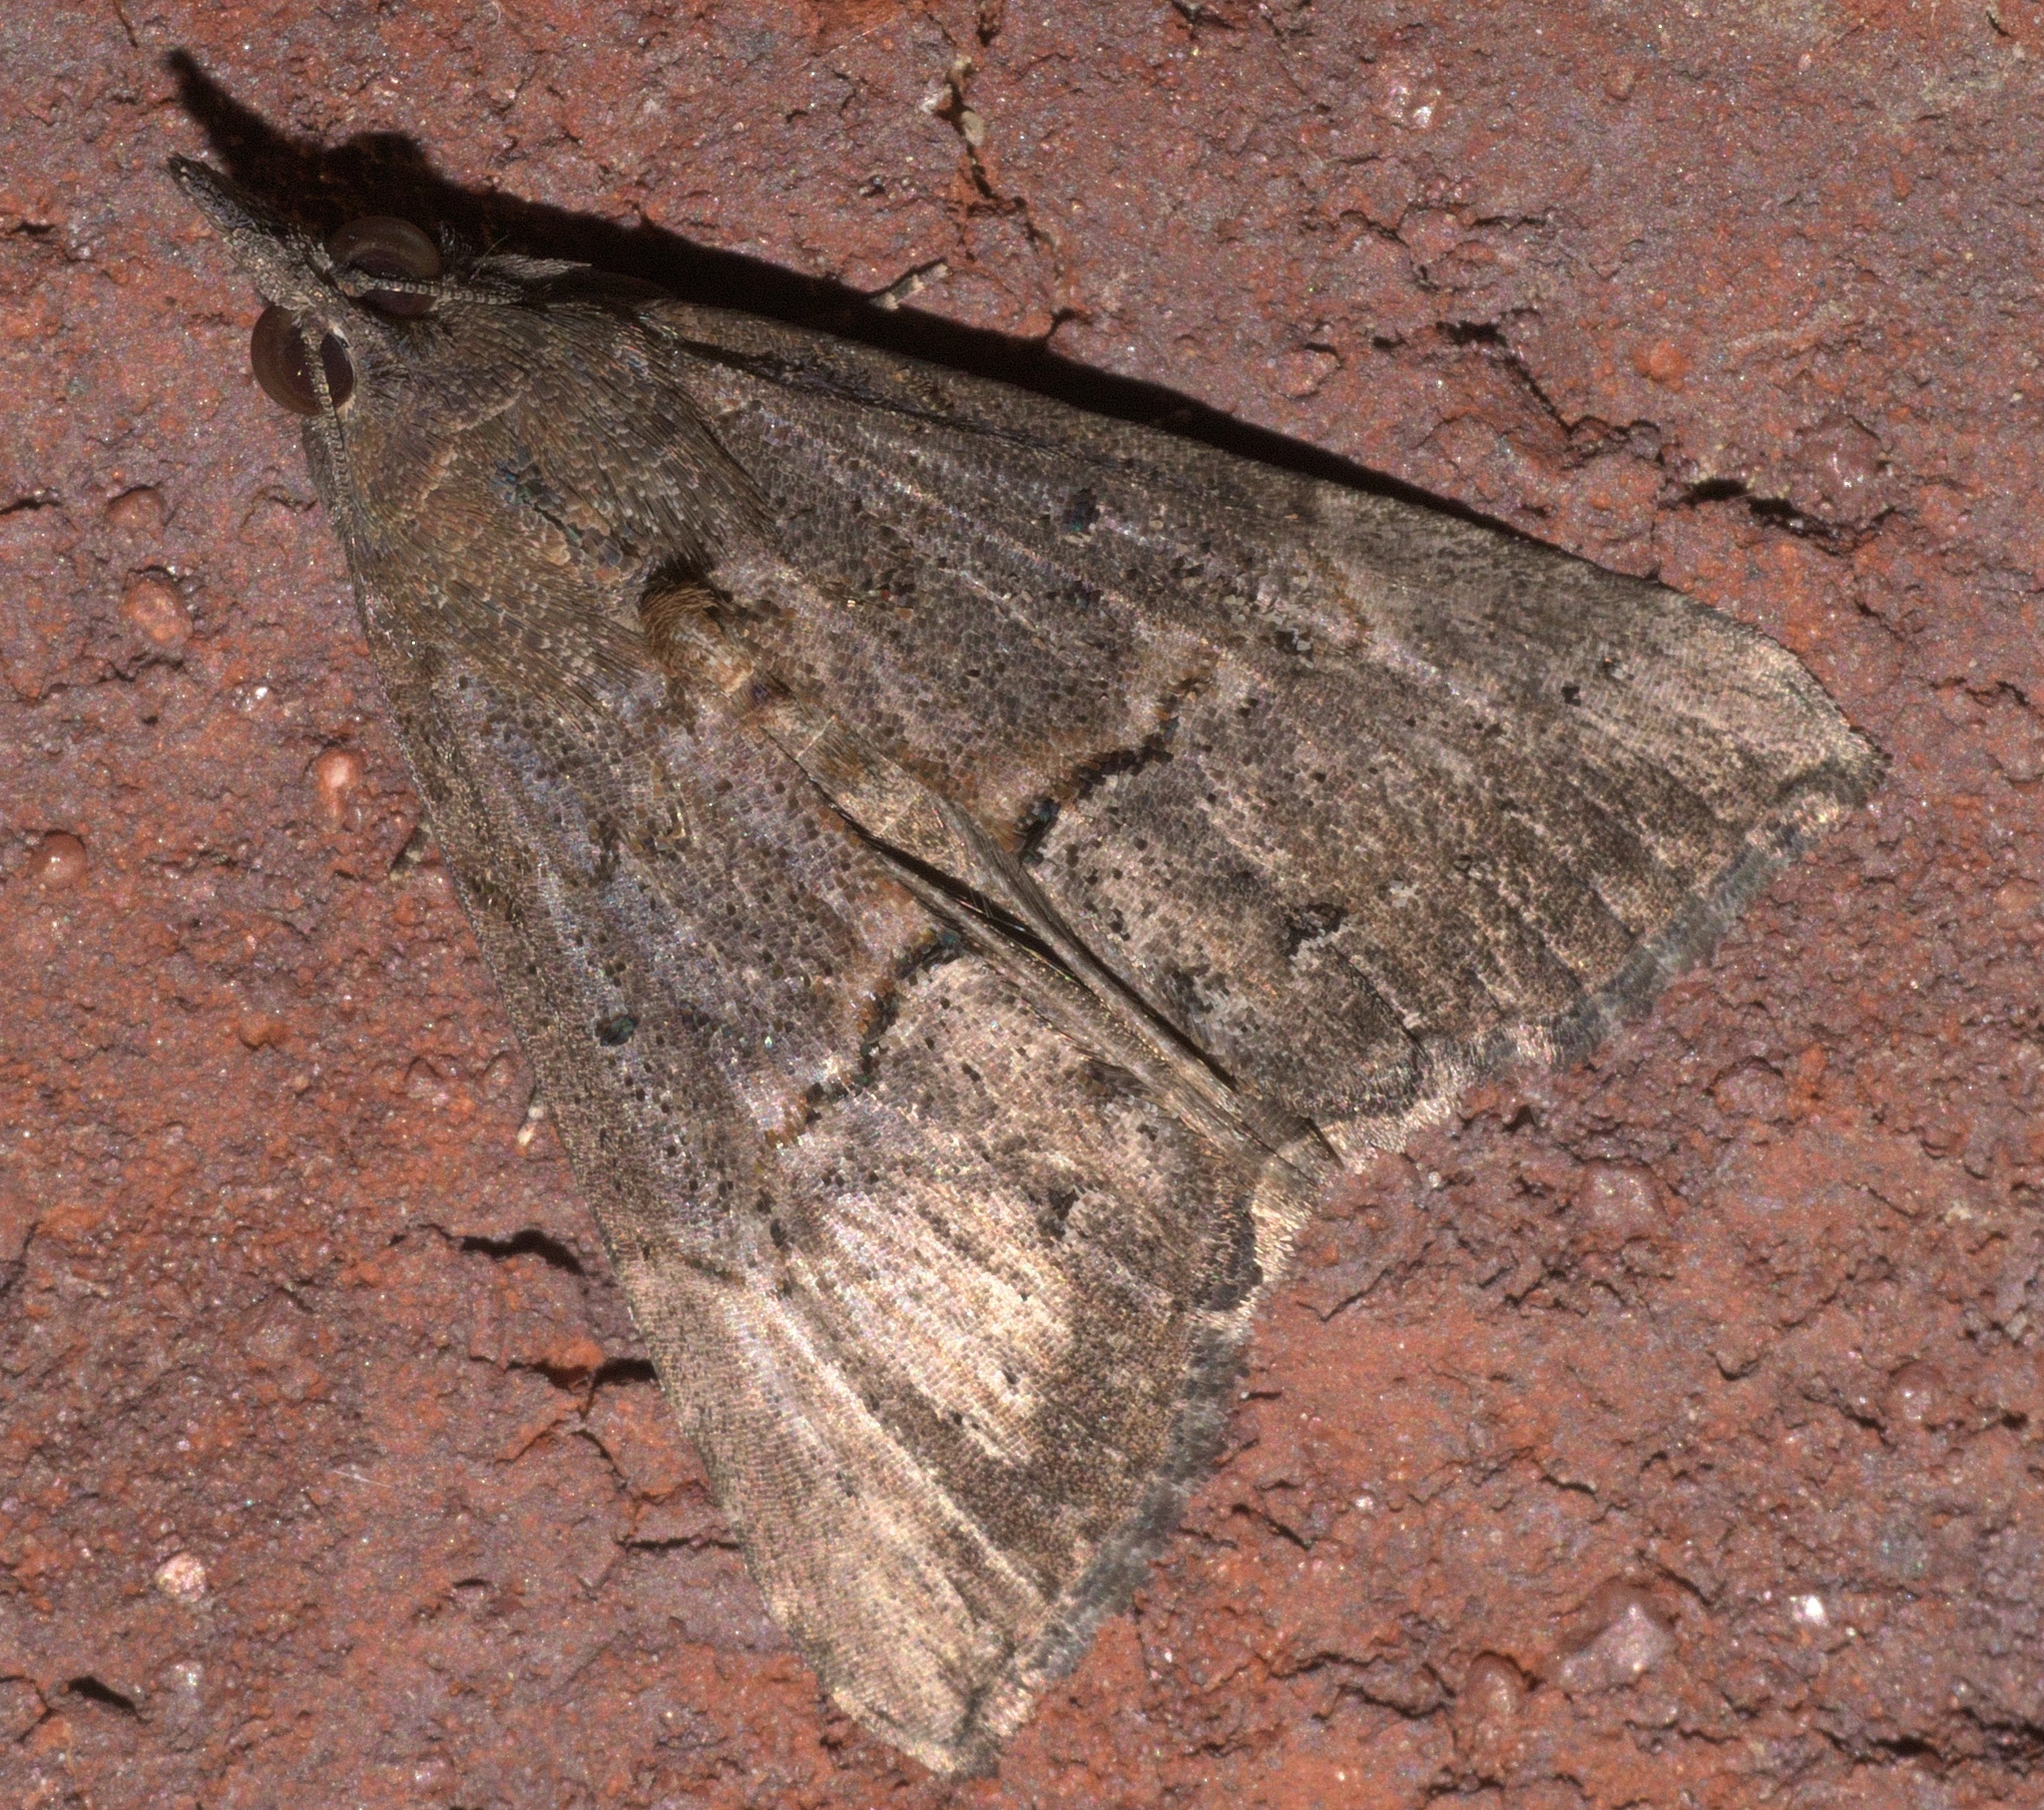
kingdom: Animalia
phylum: Arthropoda
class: Insecta
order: Lepidoptera
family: Erebidae
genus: Hypena
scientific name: Hypena scabra
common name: Green cloverworm
